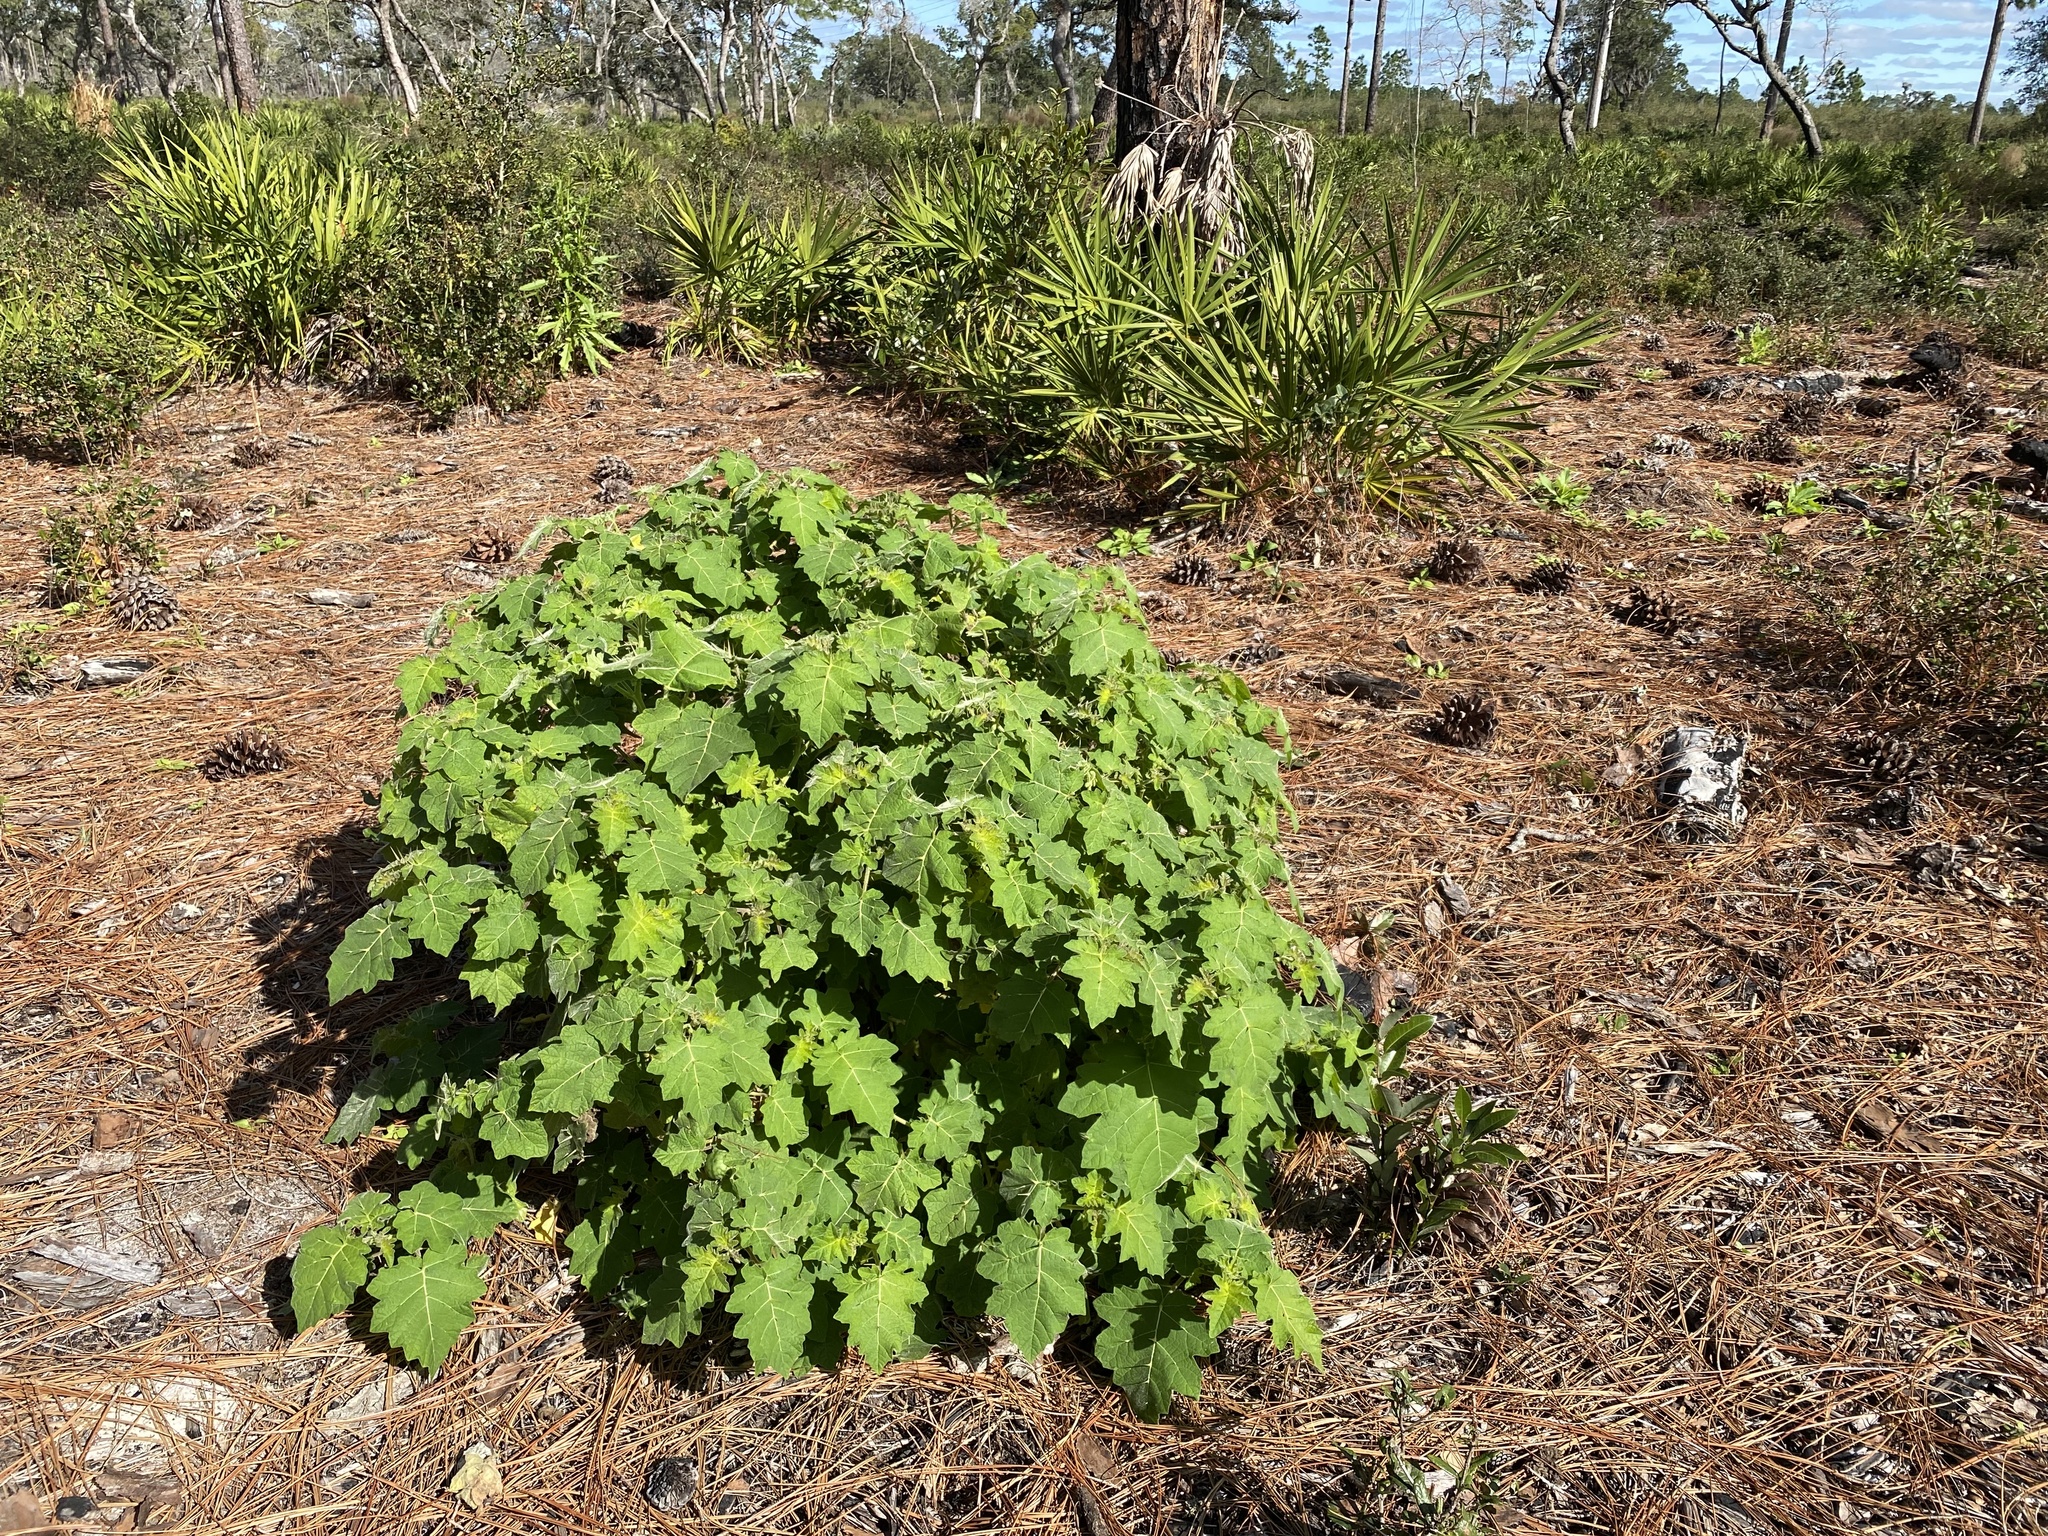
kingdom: Plantae
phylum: Tracheophyta
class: Magnoliopsida
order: Solanales
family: Solanaceae
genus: Solanum
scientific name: Solanum viarum
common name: Tropical soda apple
